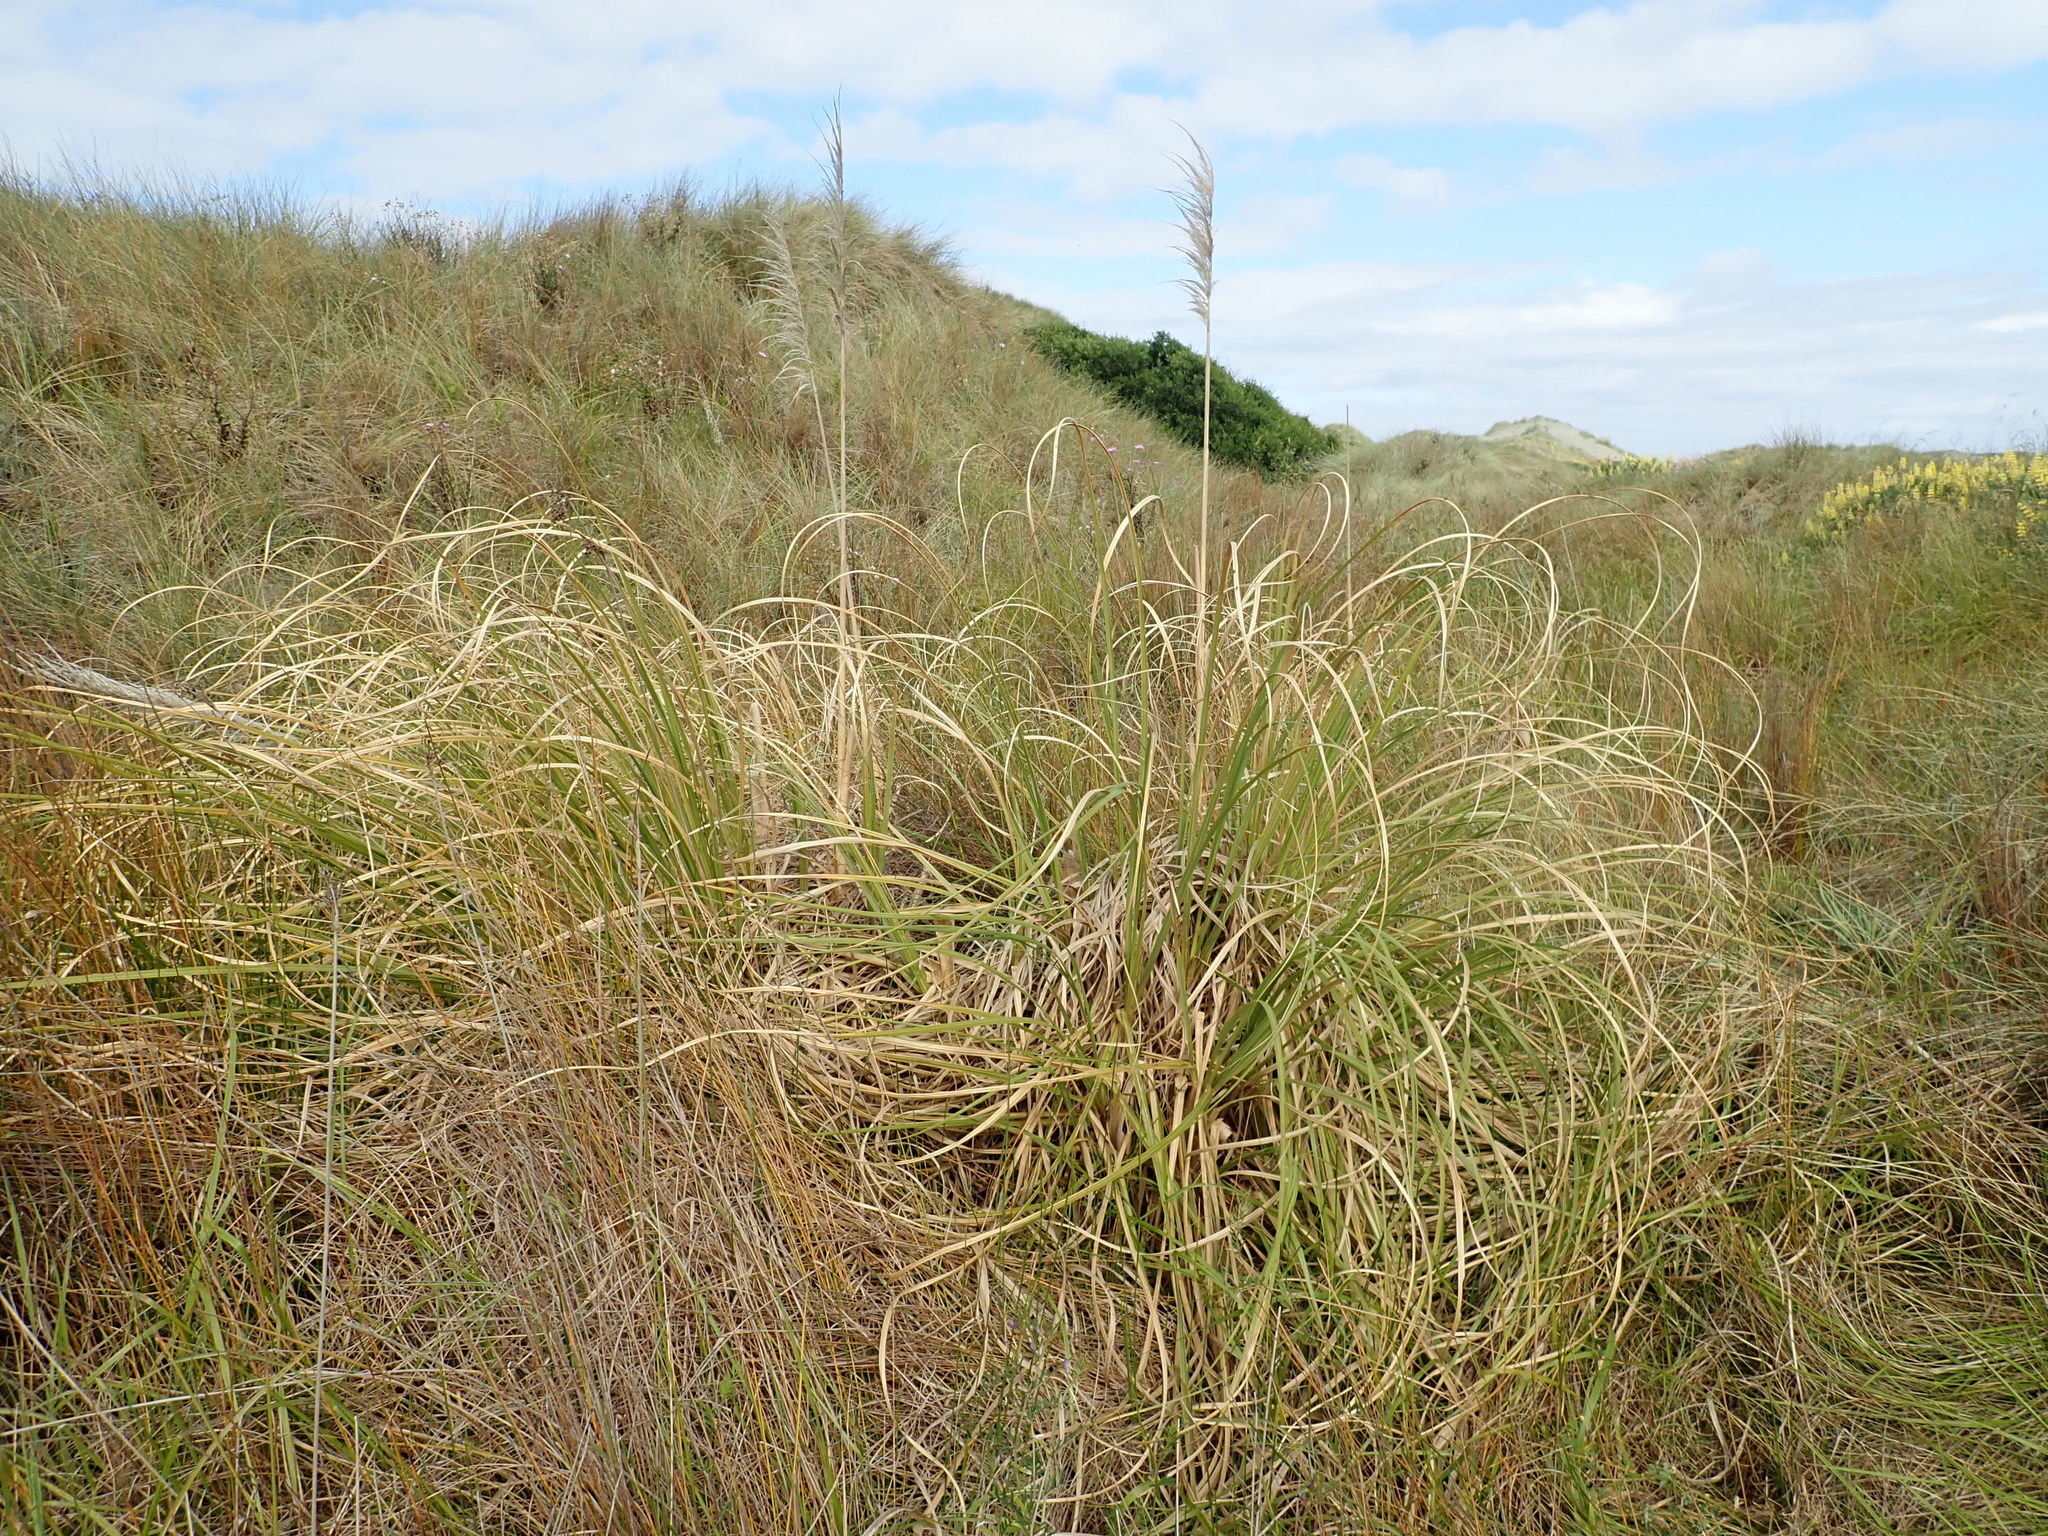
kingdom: Plantae
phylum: Tracheophyta
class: Liliopsida
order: Poales
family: Poaceae
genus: Cortaderia
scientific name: Cortaderia selloana
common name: Uruguayan pampas grass
